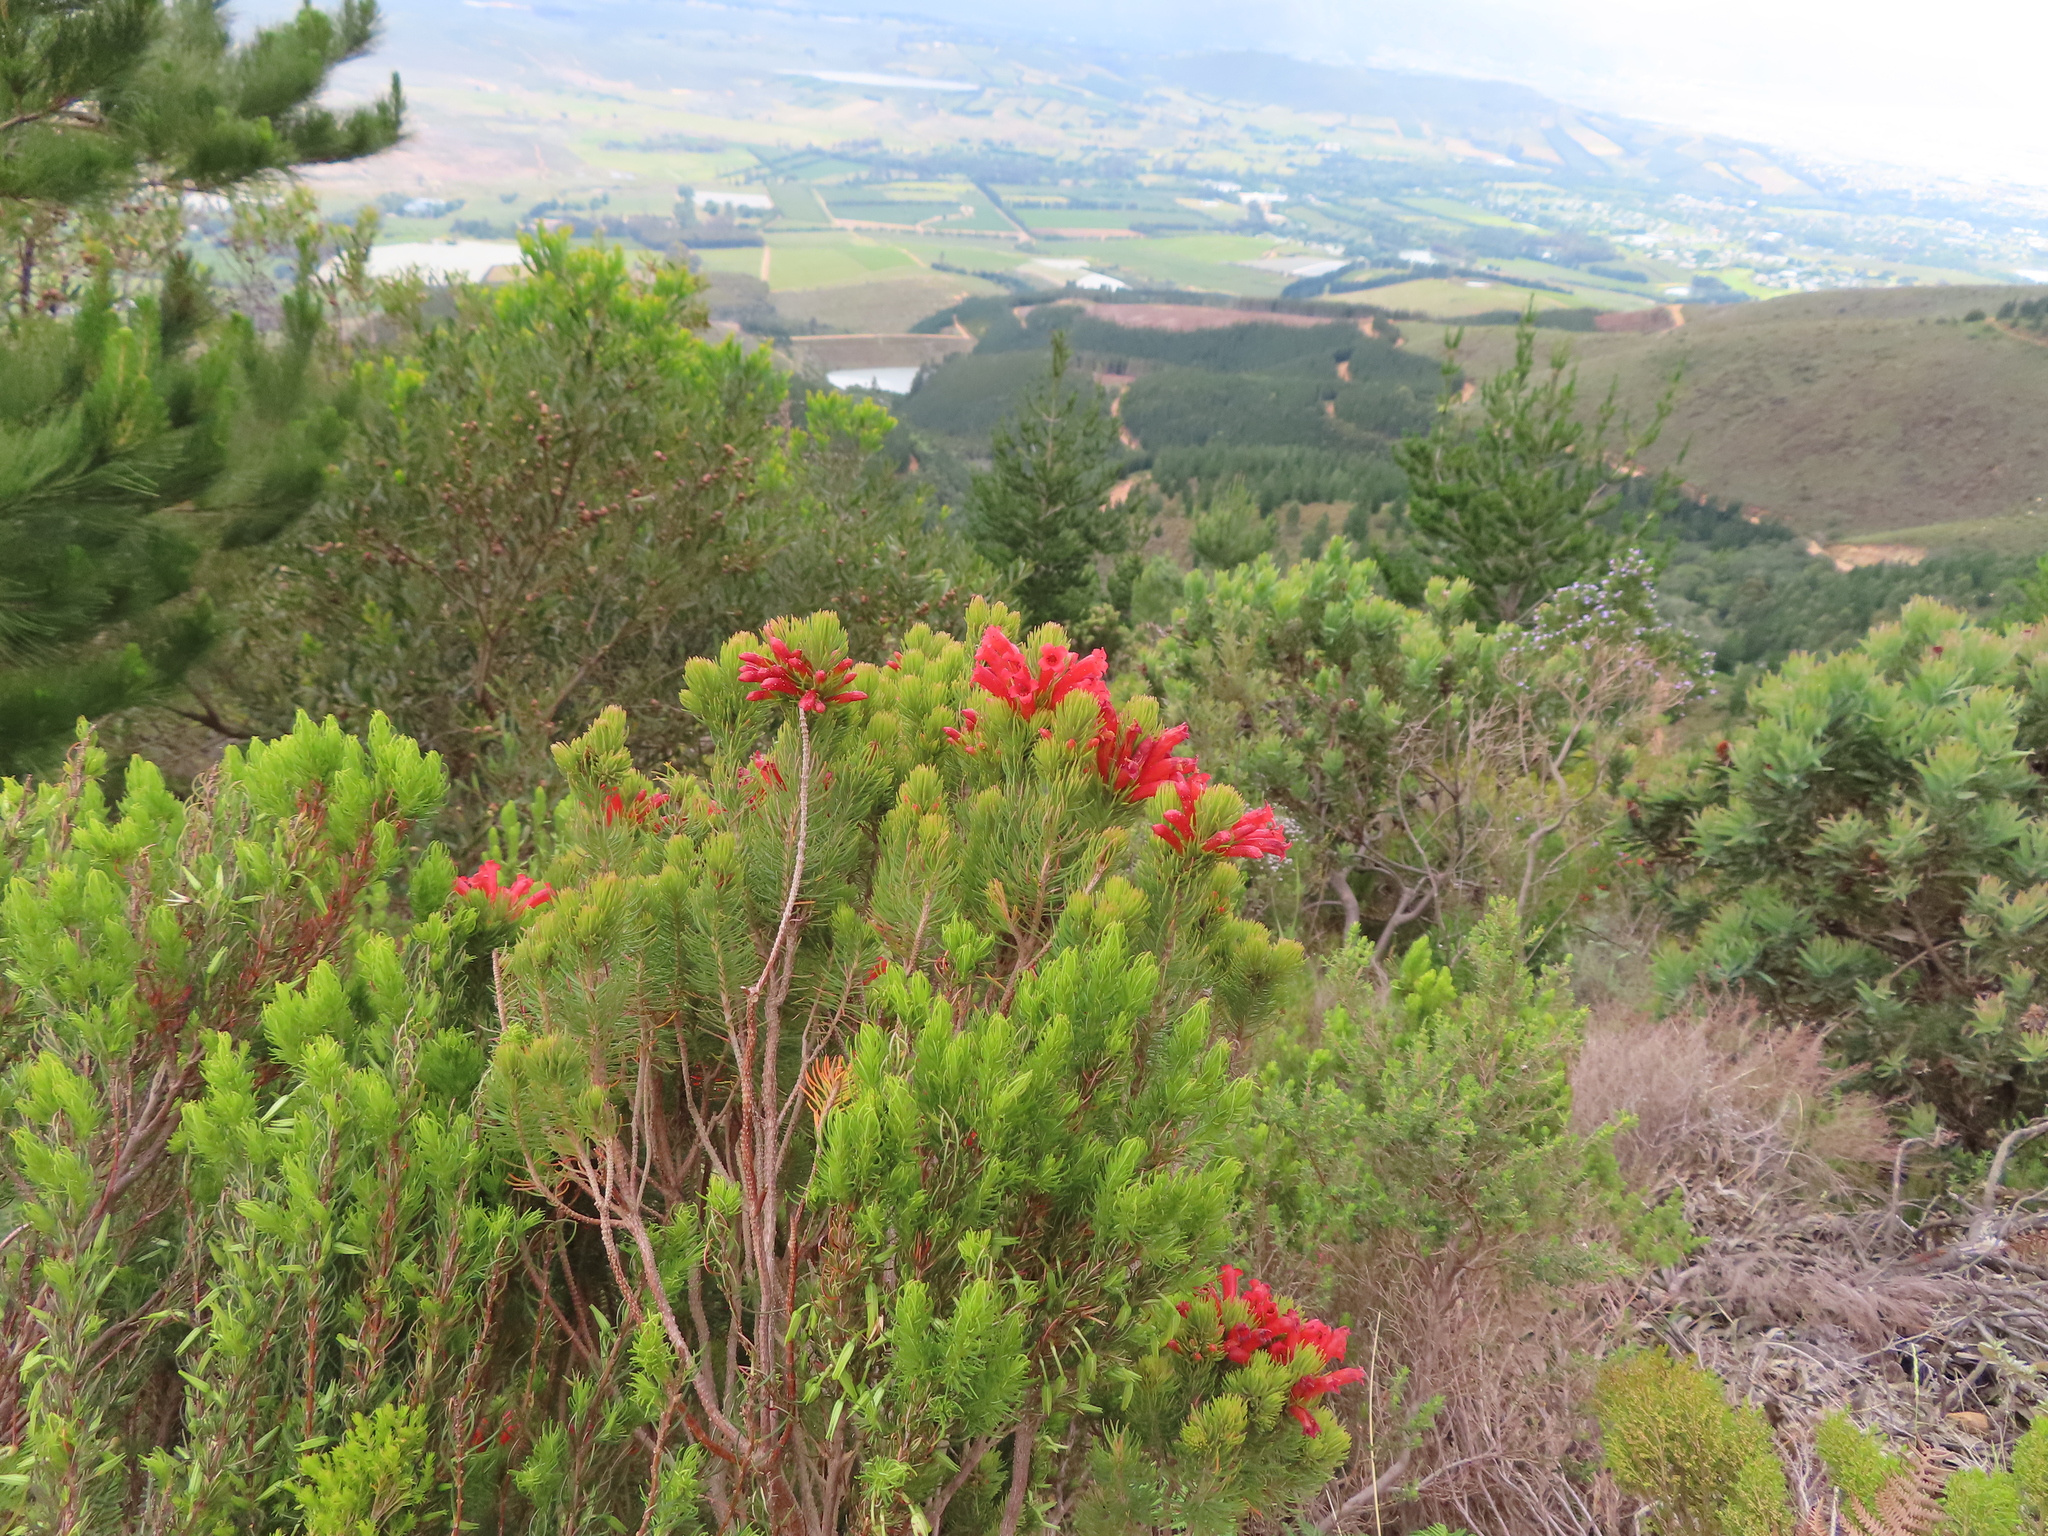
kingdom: Plantae
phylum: Tracheophyta
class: Magnoliopsida
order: Ericales
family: Ericaceae
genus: Erica
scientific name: Erica viscaria
